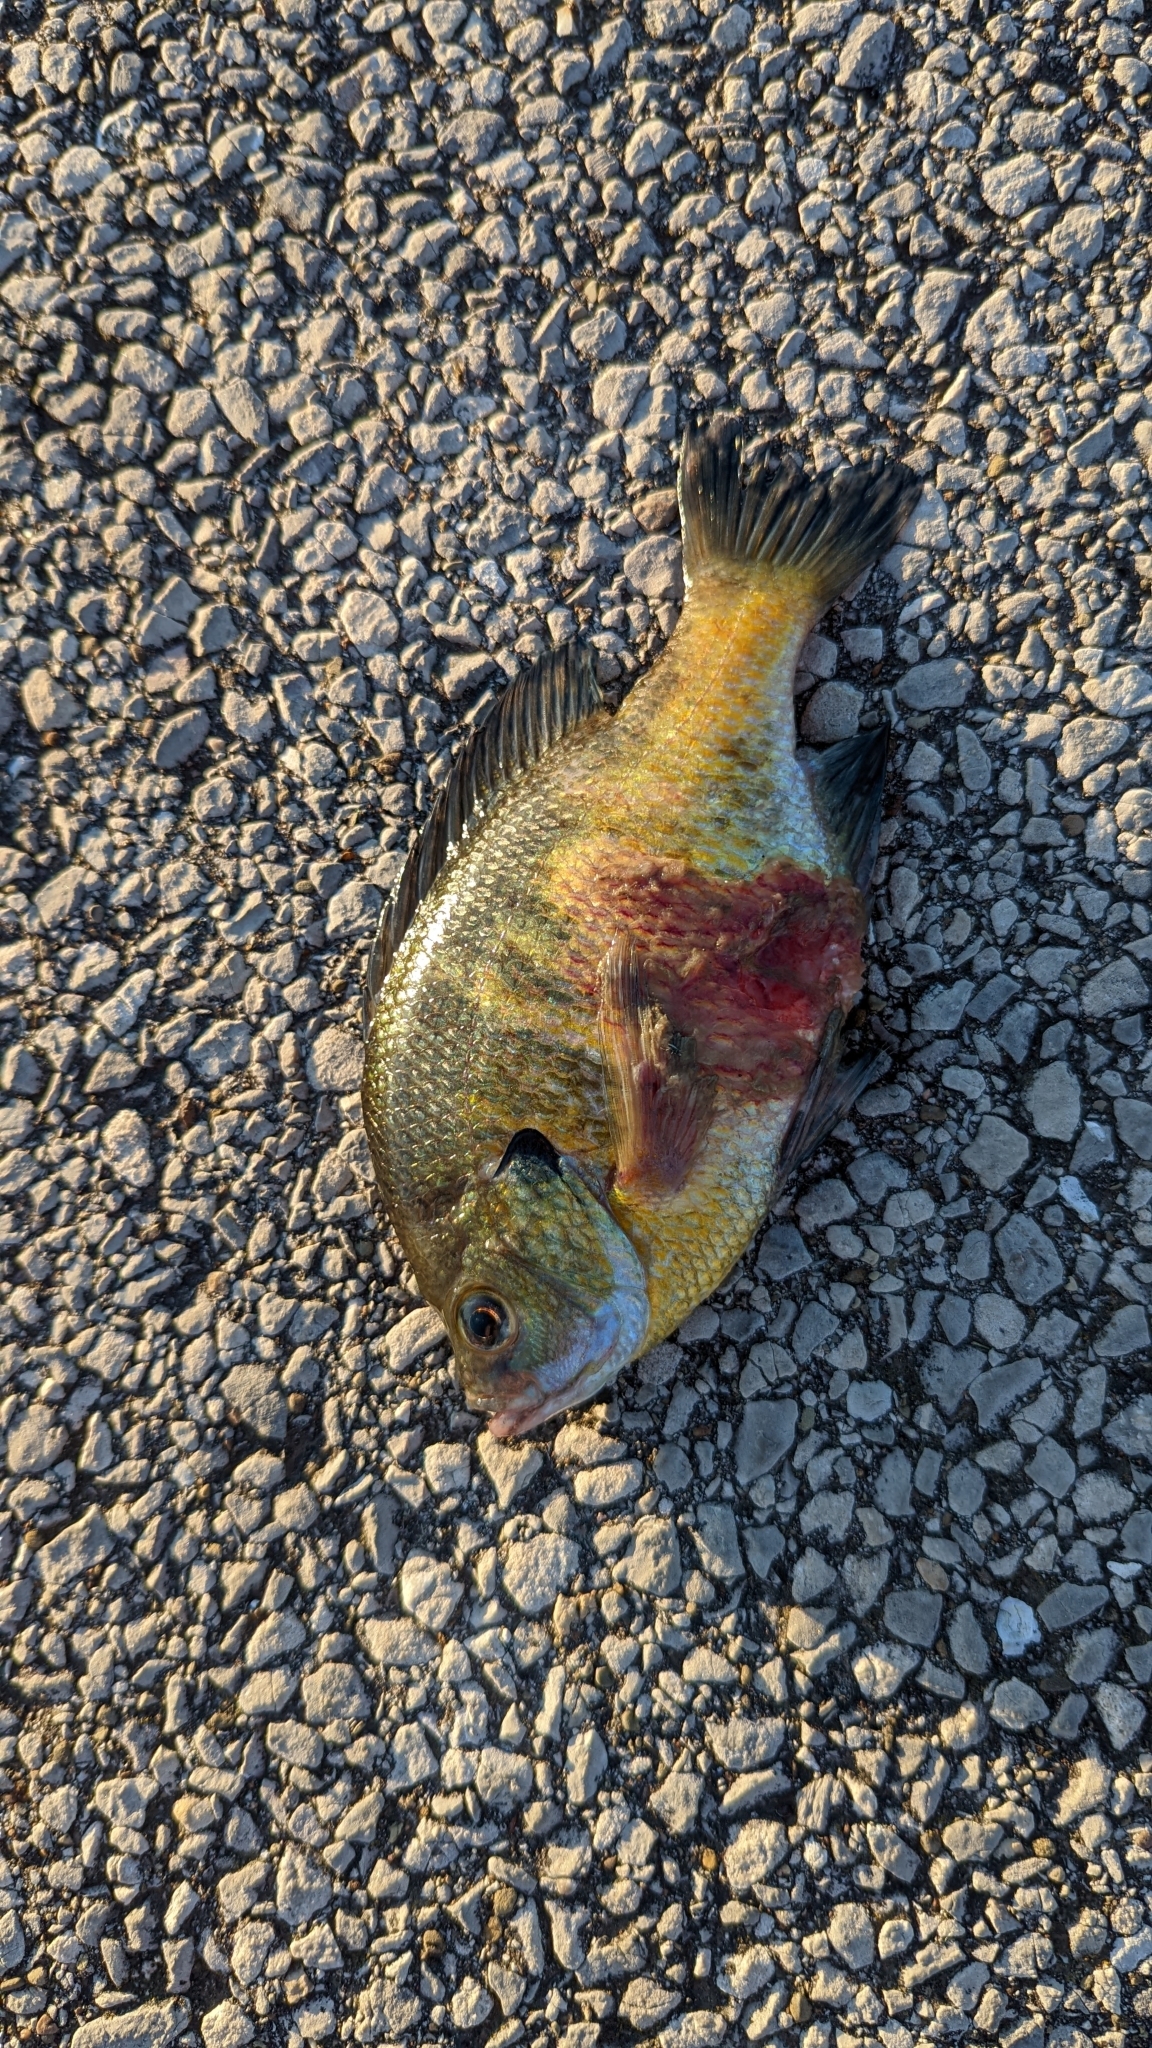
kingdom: Animalia
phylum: Chordata
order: Perciformes
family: Centrarchidae
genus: Lepomis
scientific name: Lepomis macrochirus
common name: Bluegill
